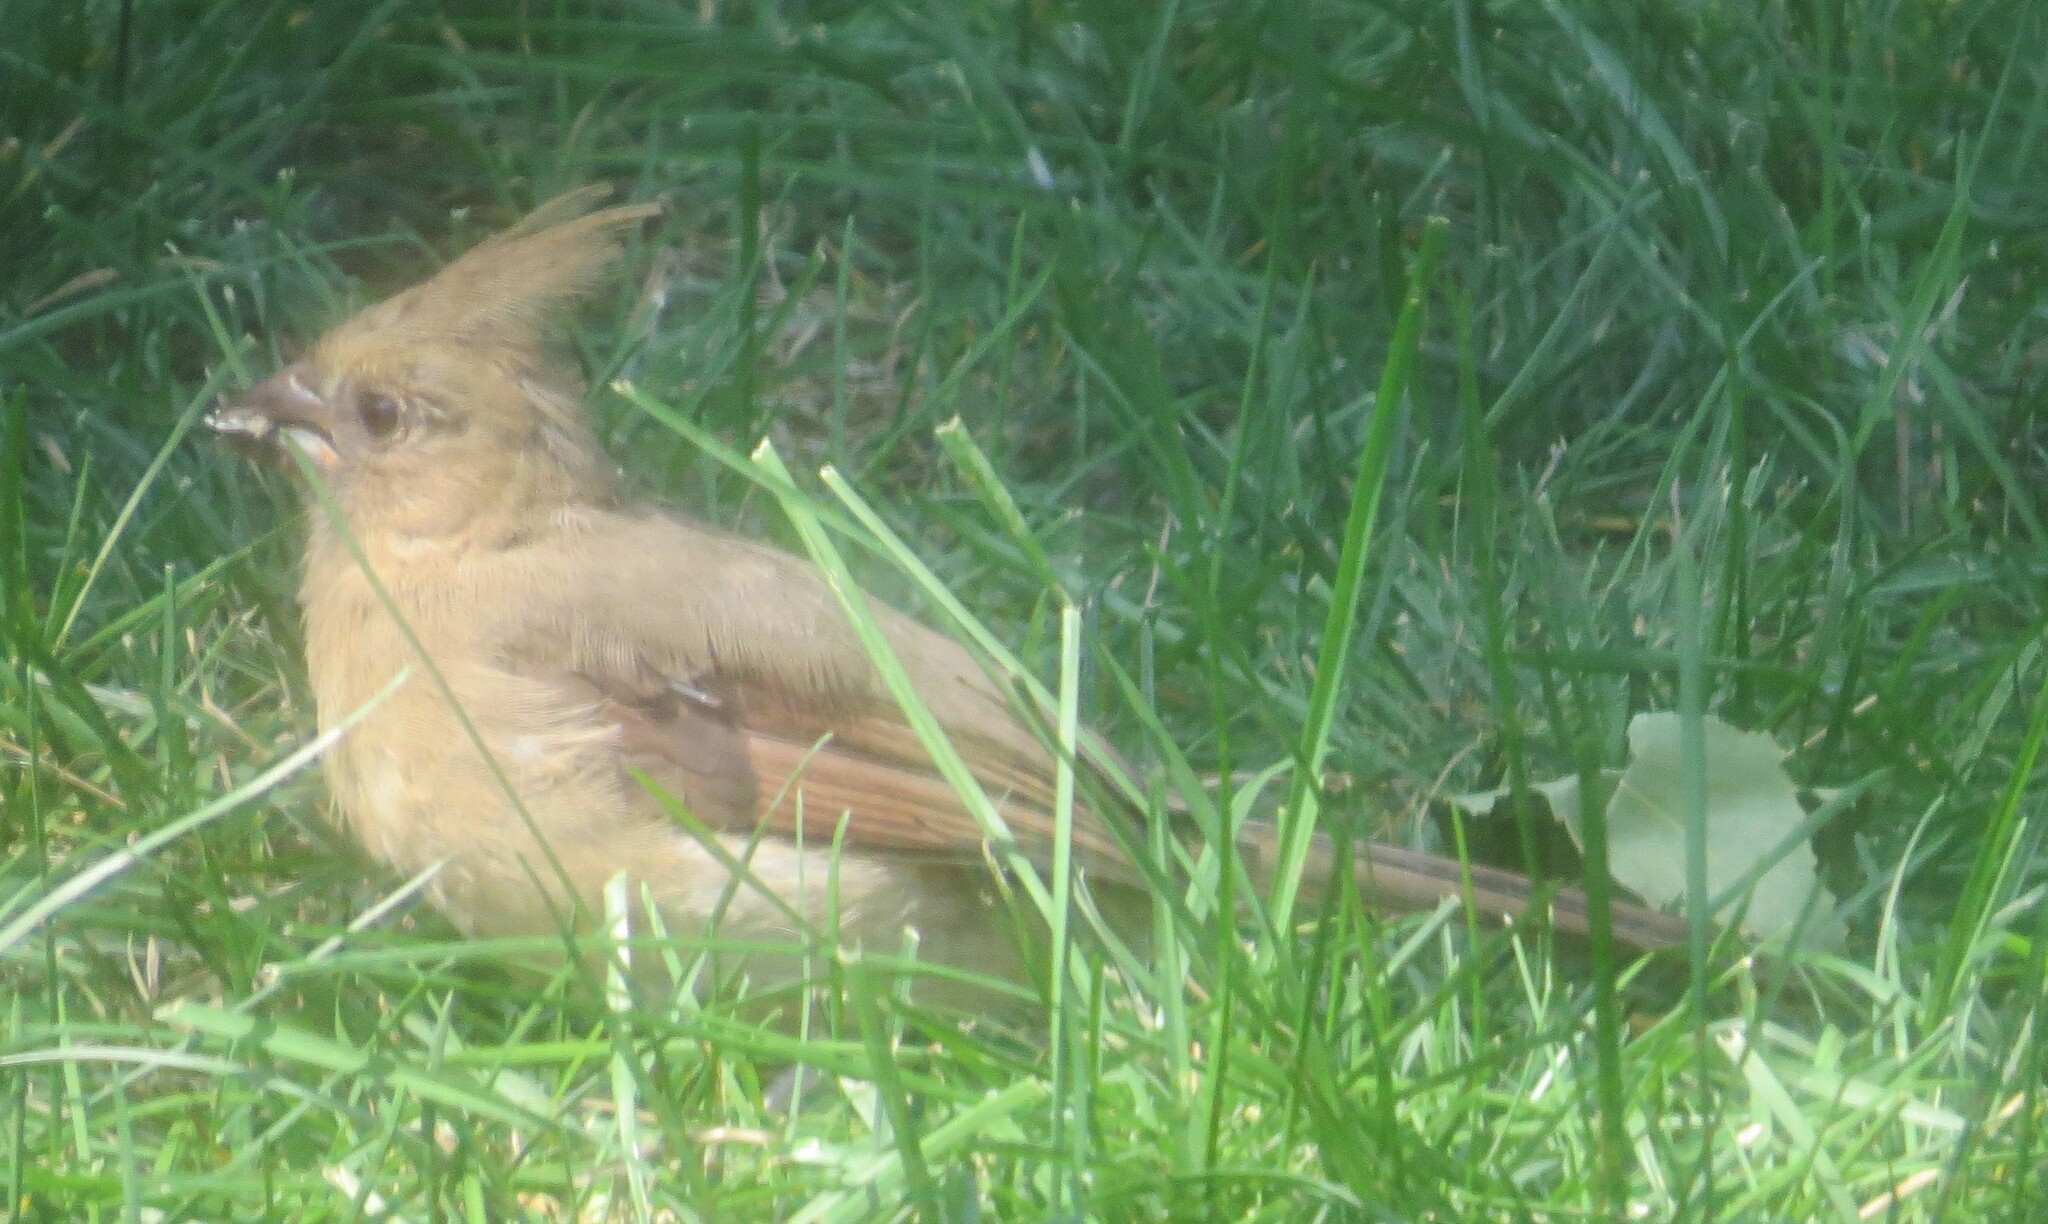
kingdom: Animalia
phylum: Chordata
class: Aves
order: Passeriformes
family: Cardinalidae
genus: Cardinalis
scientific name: Cardinalis cardinalis
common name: Northern cardinal
